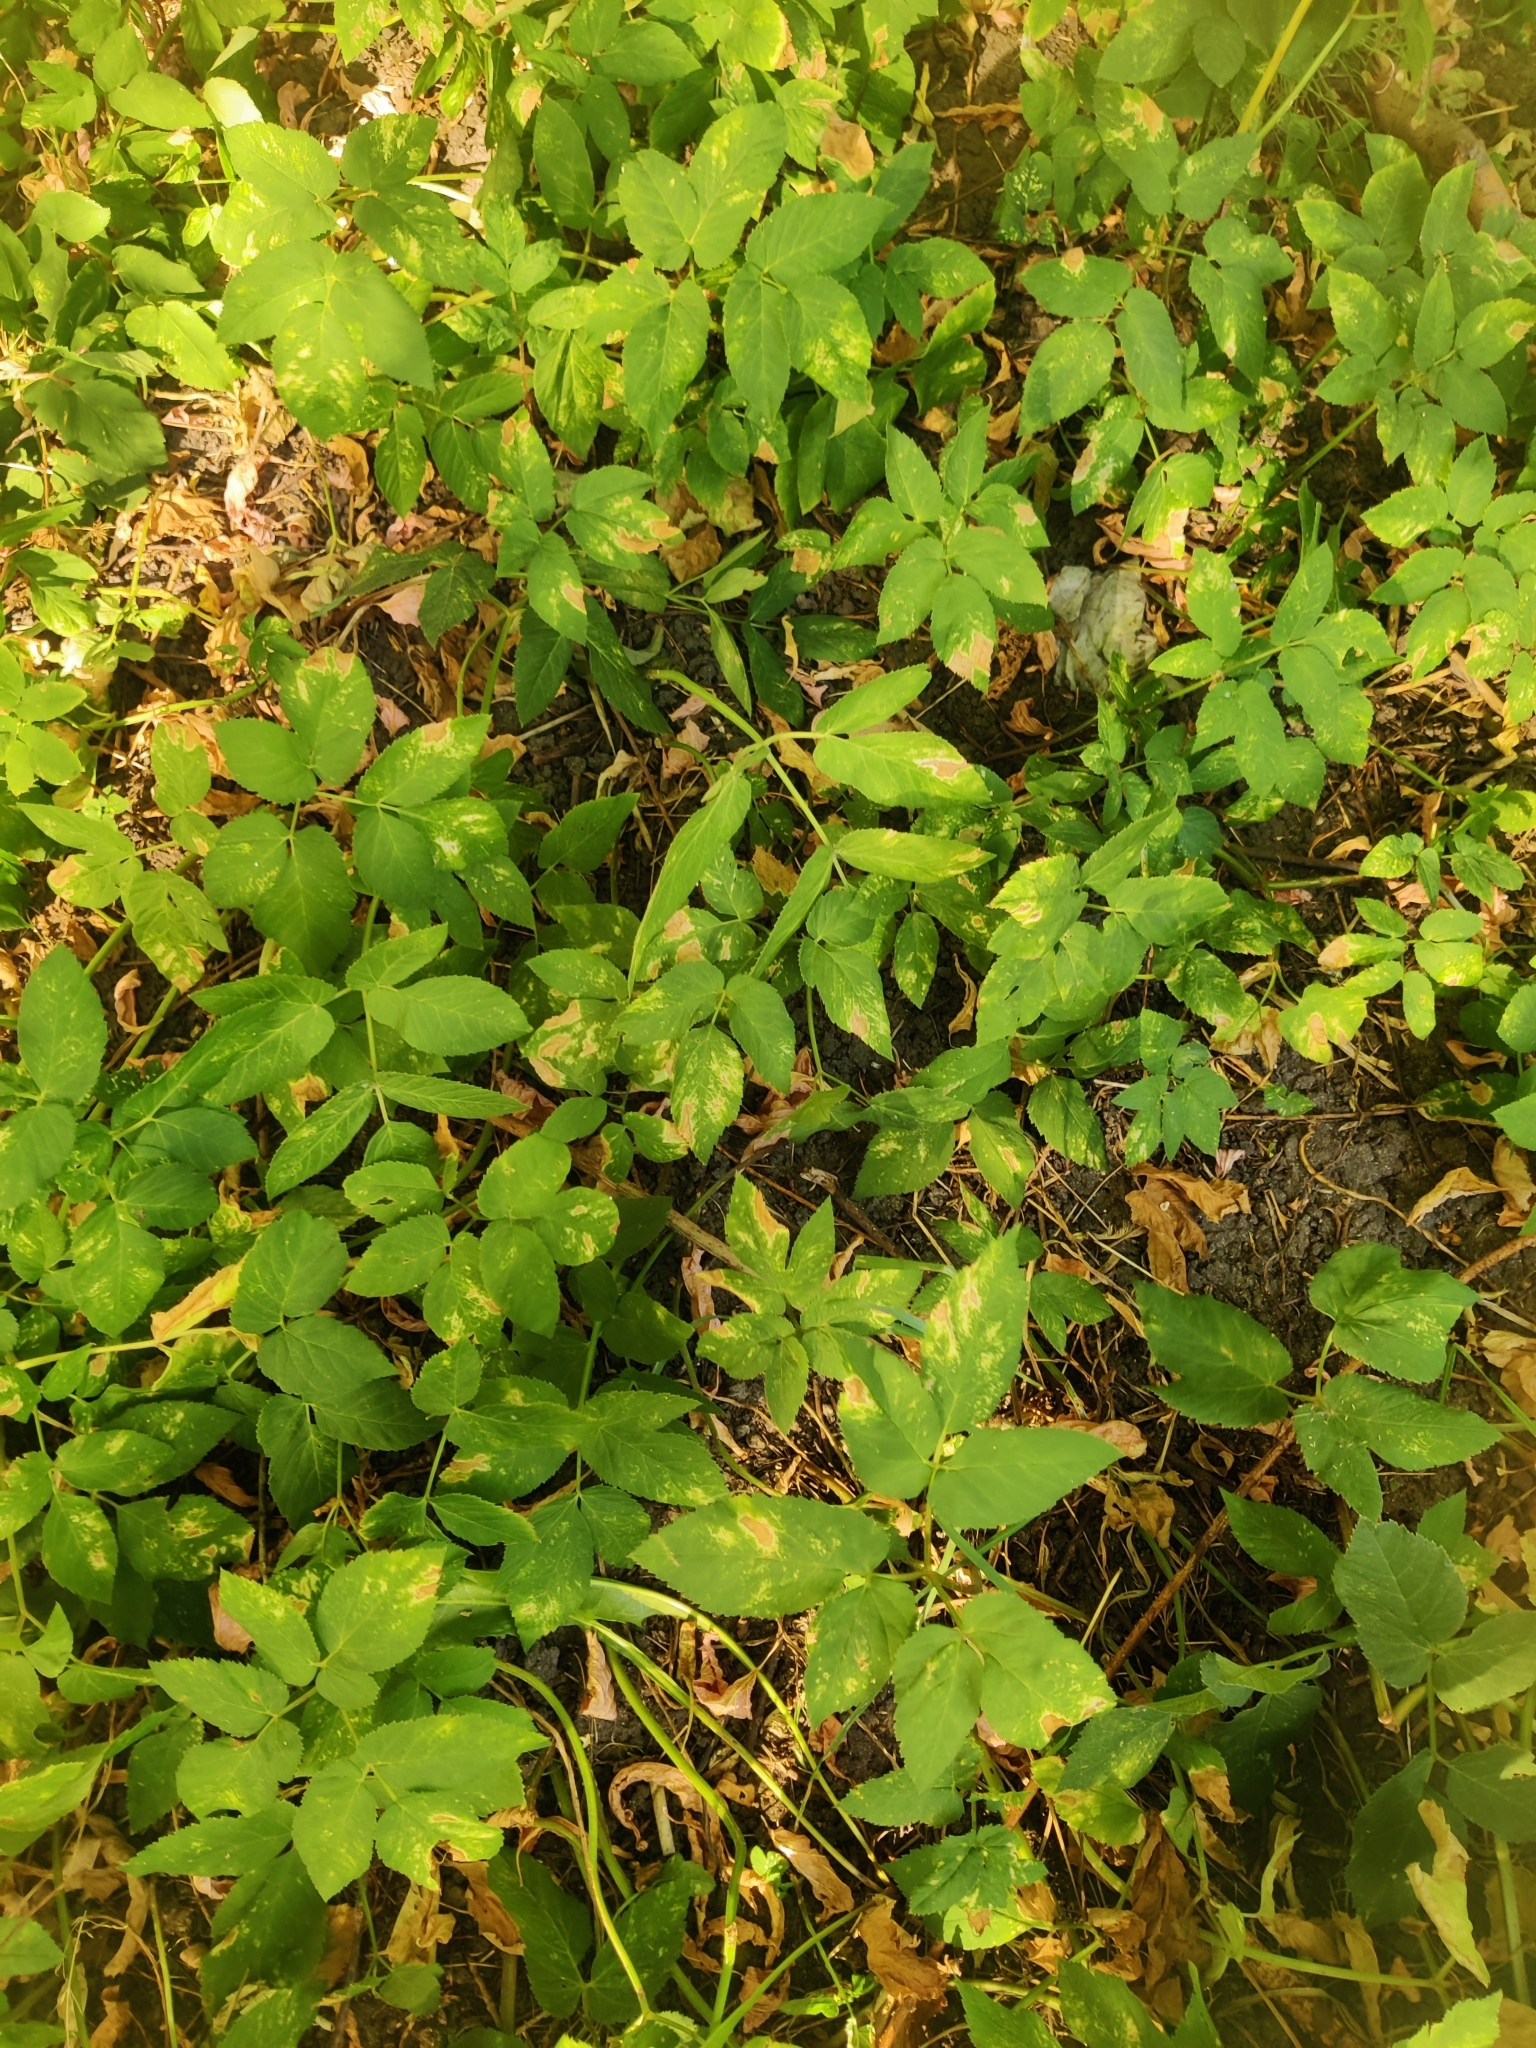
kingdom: Plantae
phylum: Tracheophyta
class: Magnoliopsida
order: Apiales
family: Apiaceae
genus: Aegopodium
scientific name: Aegopodium podagraria
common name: Ground-elder
